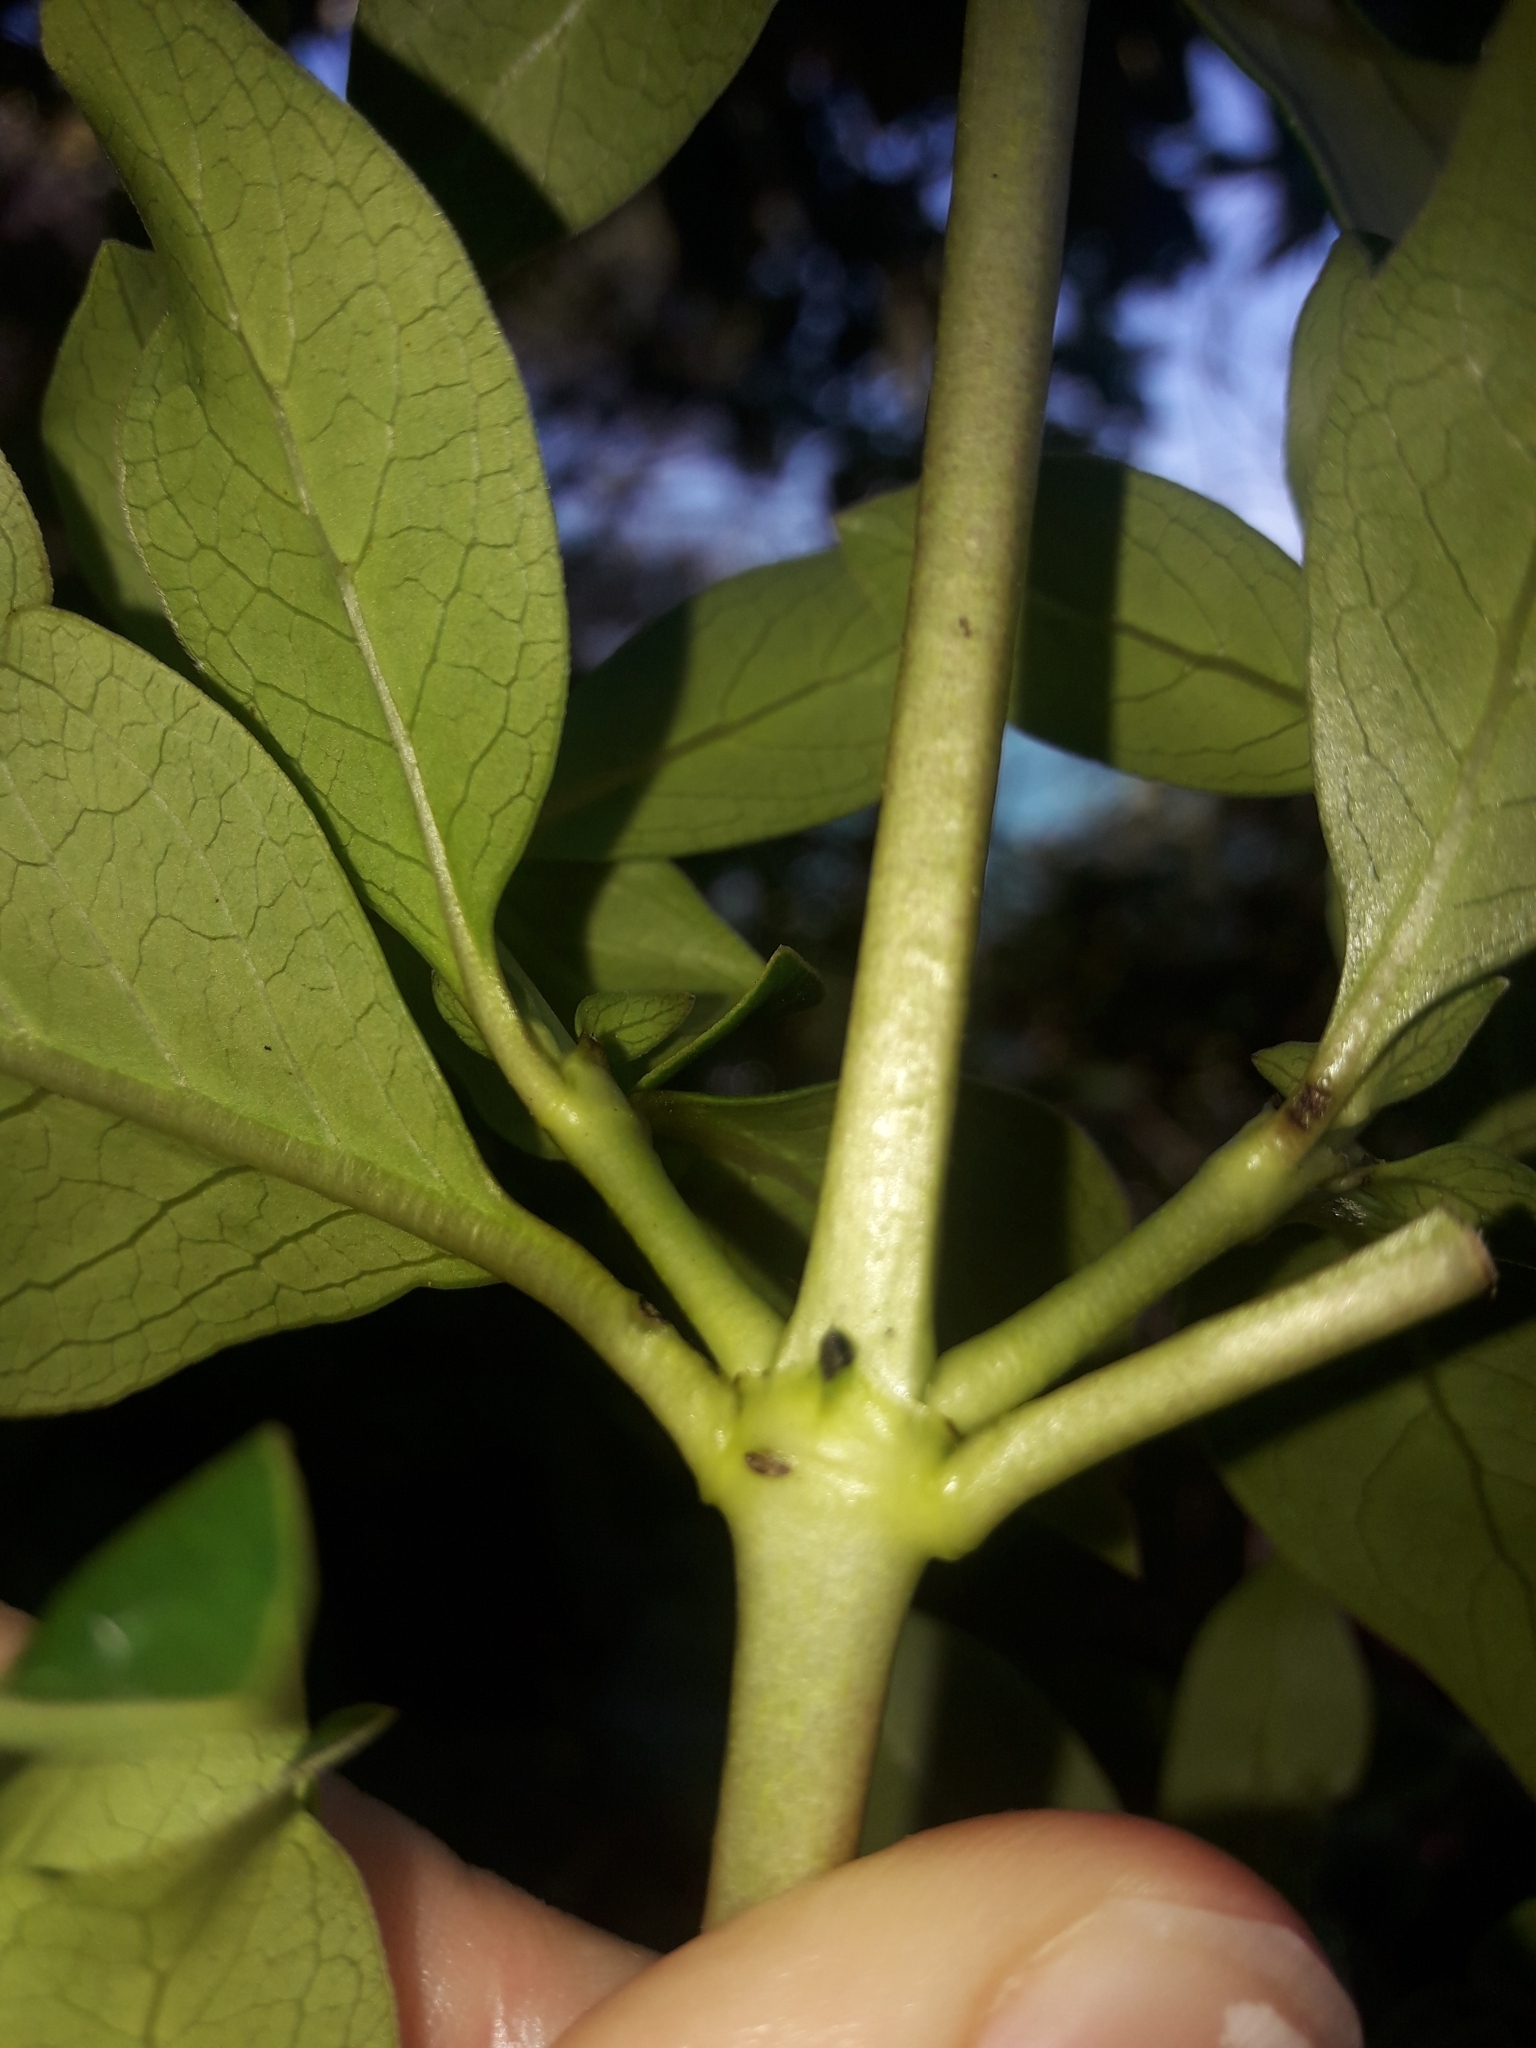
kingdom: Plantae
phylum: Tracheophyta
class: Magnoliopsida
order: Gentianales
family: Rubiaceae
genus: Coprosma
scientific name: Coprosma robusta
